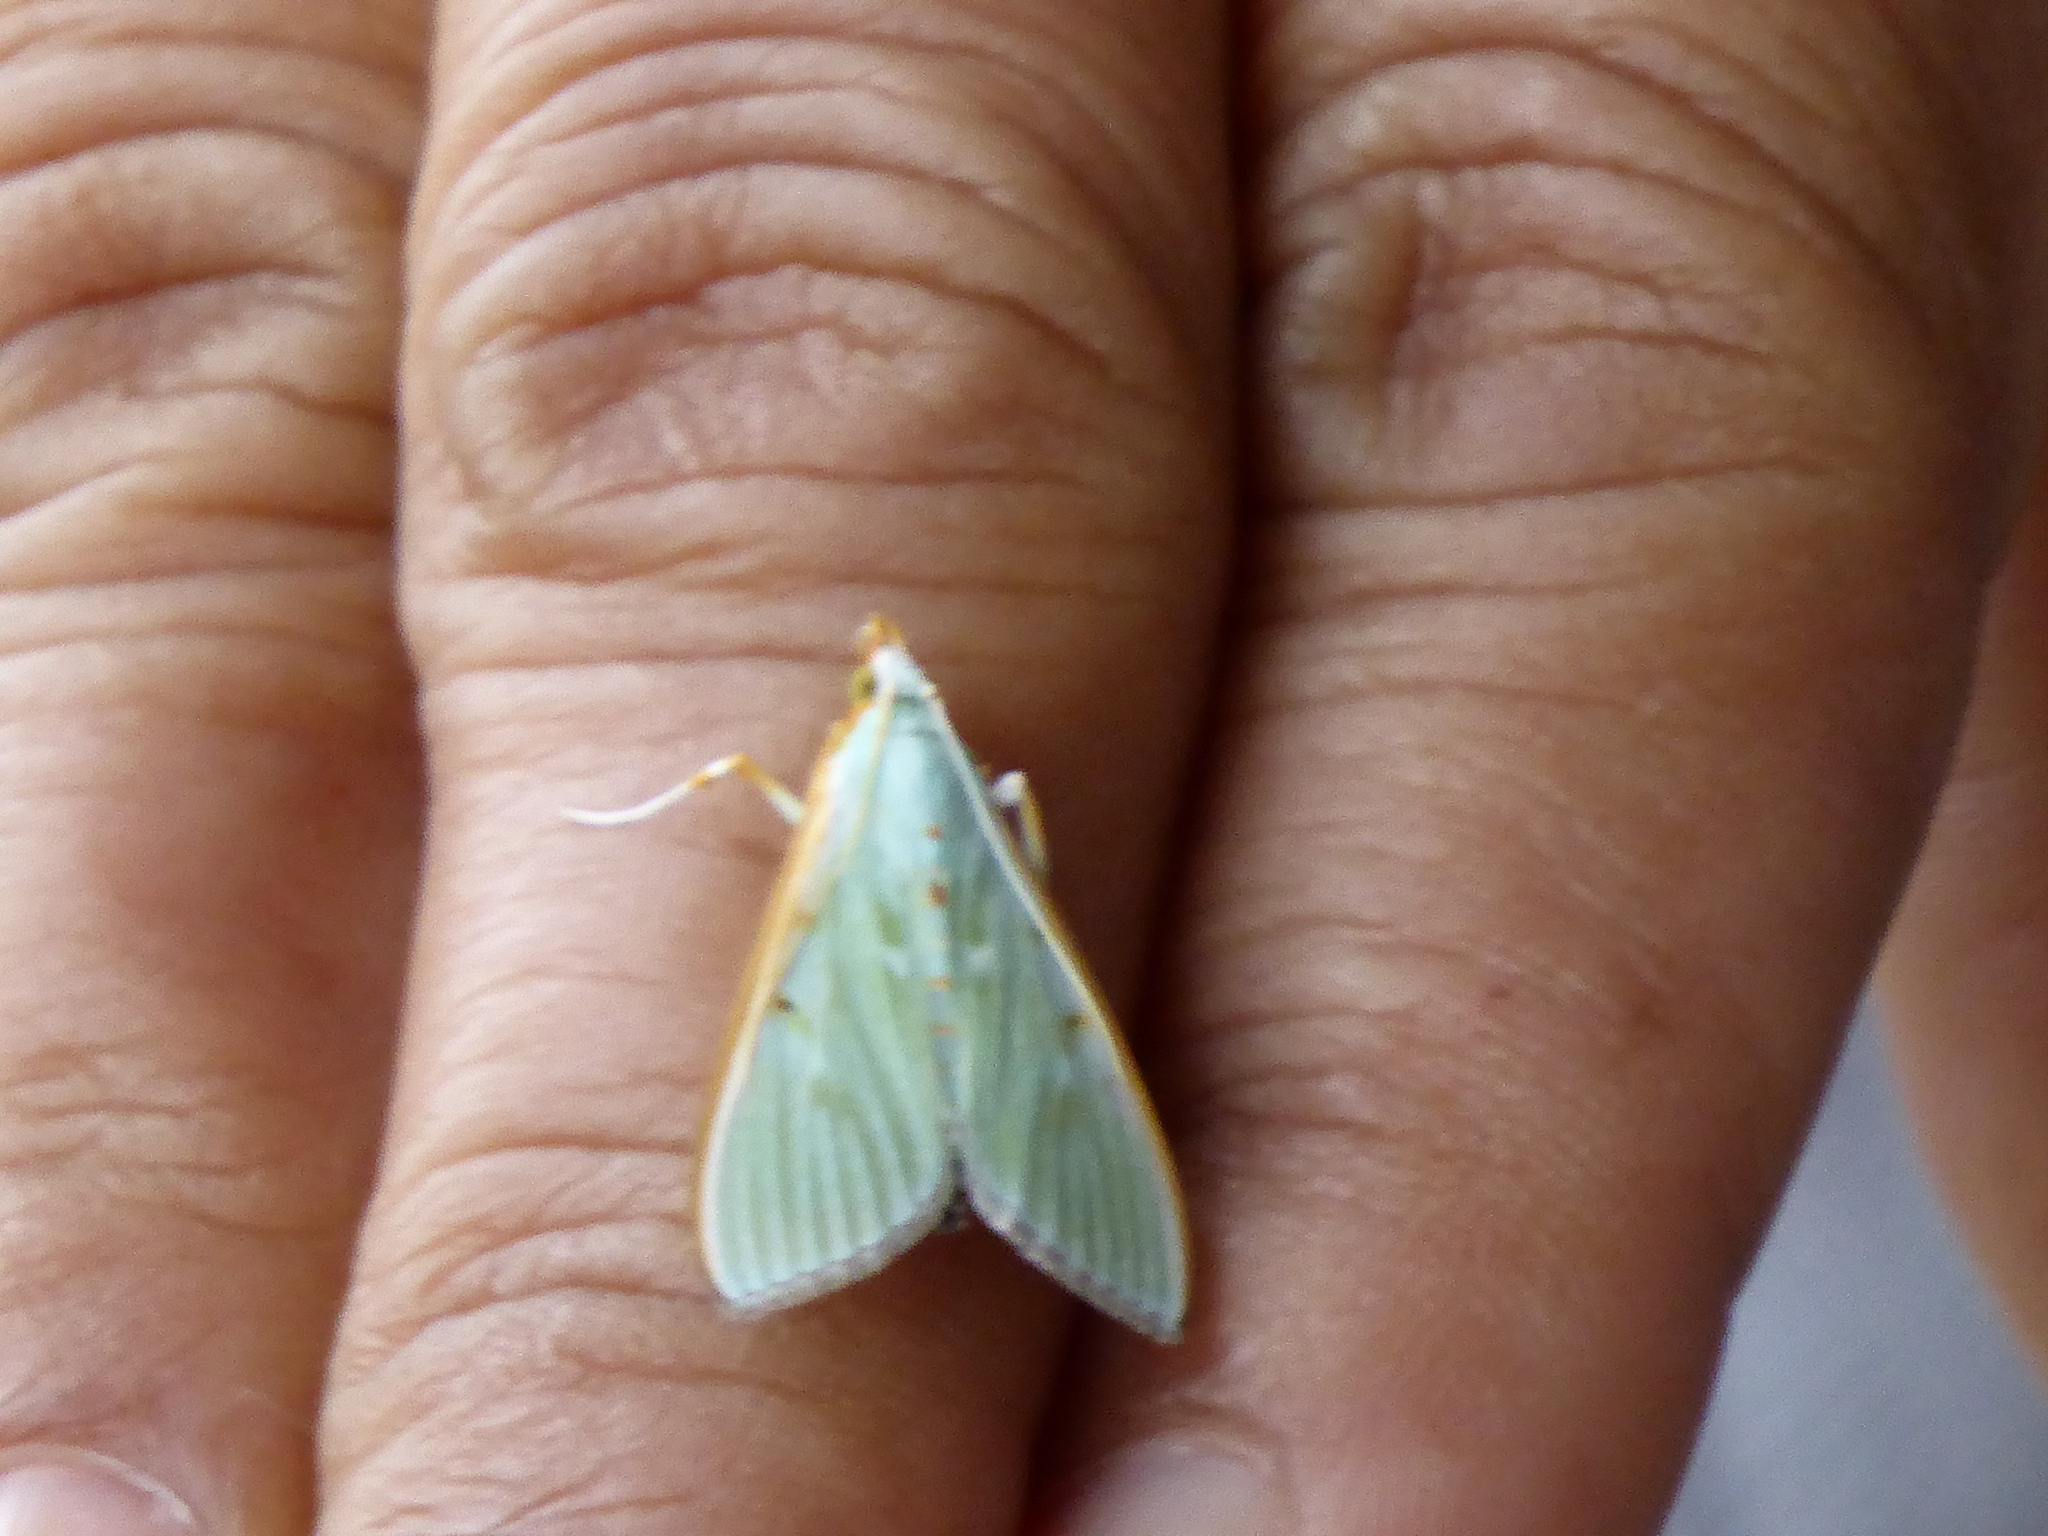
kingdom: Animalia
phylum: Arthropoda
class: Insecta
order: Lepidoptera
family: Crambidae
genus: Arthroschista
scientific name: Arthroschista hilaralis
